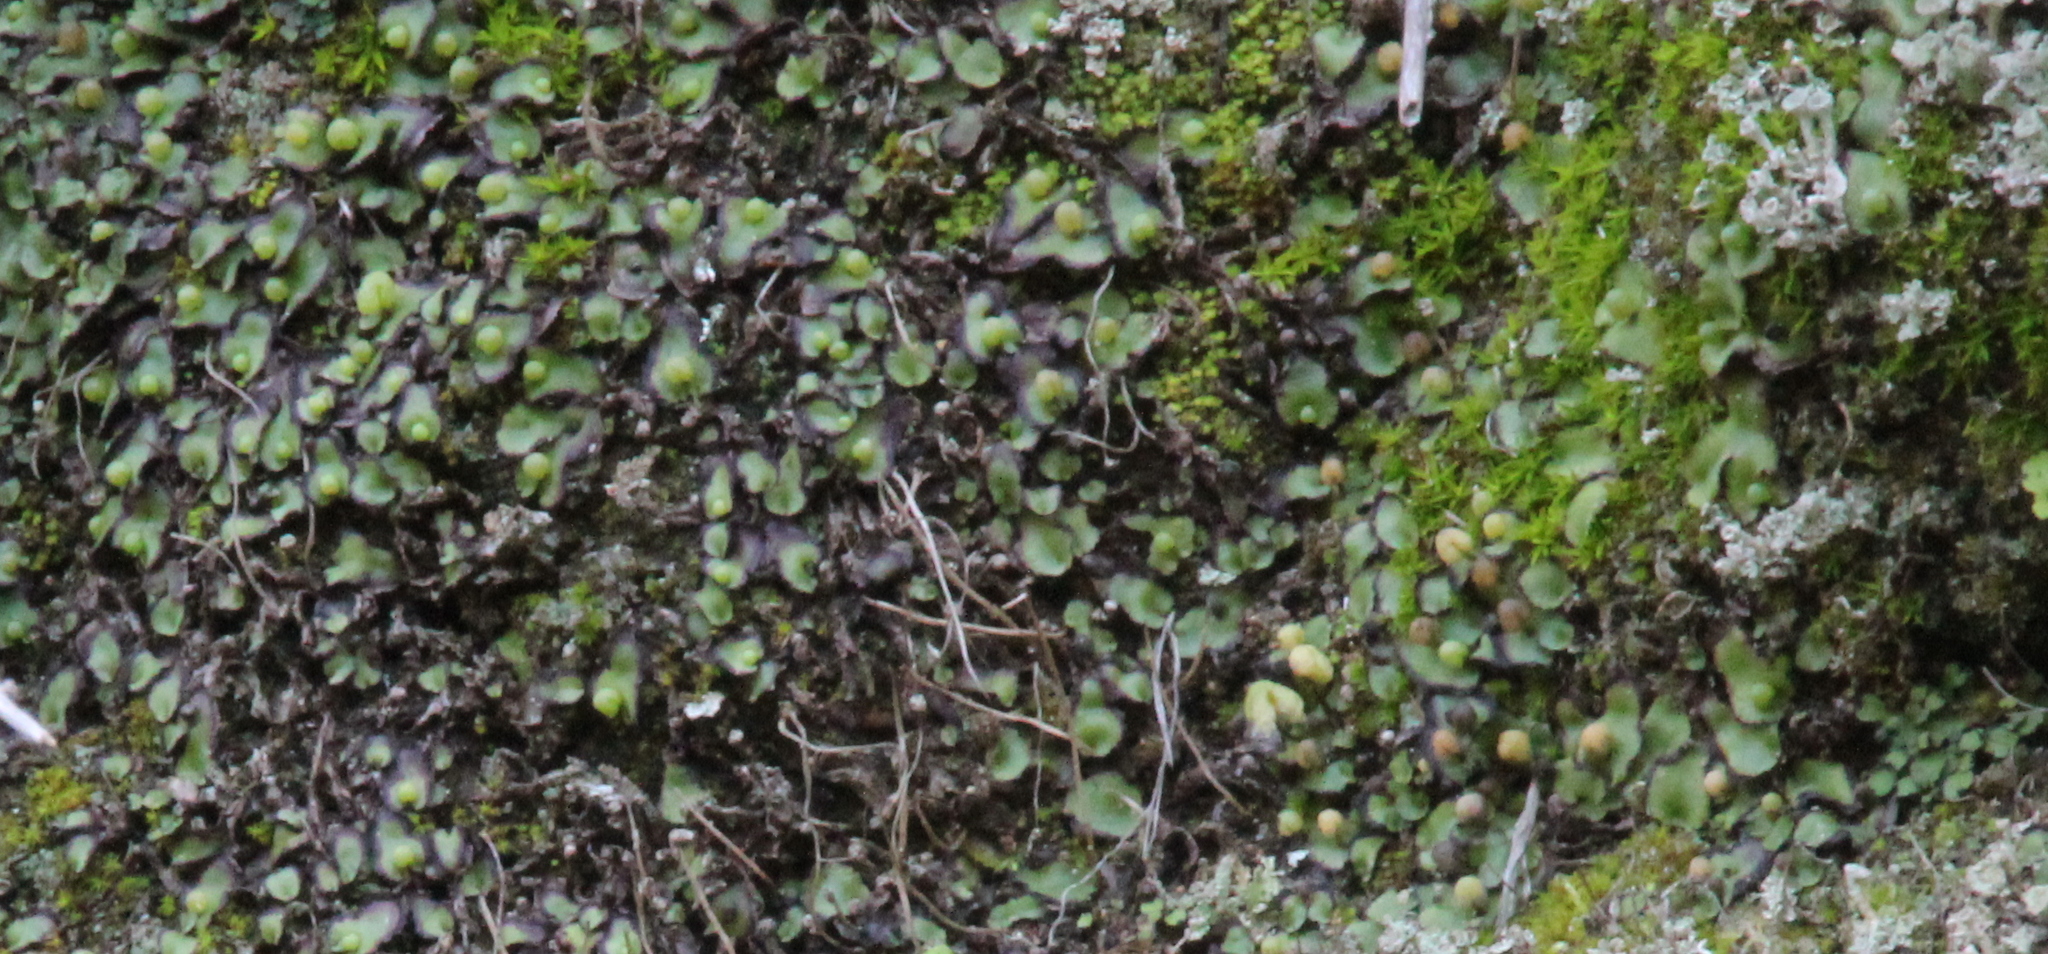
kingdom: Plantae
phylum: Marchantiophyta
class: Marchantiopsida
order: Marchantiales
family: Aytoniaceae
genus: Asterella
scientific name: Asterella californica
